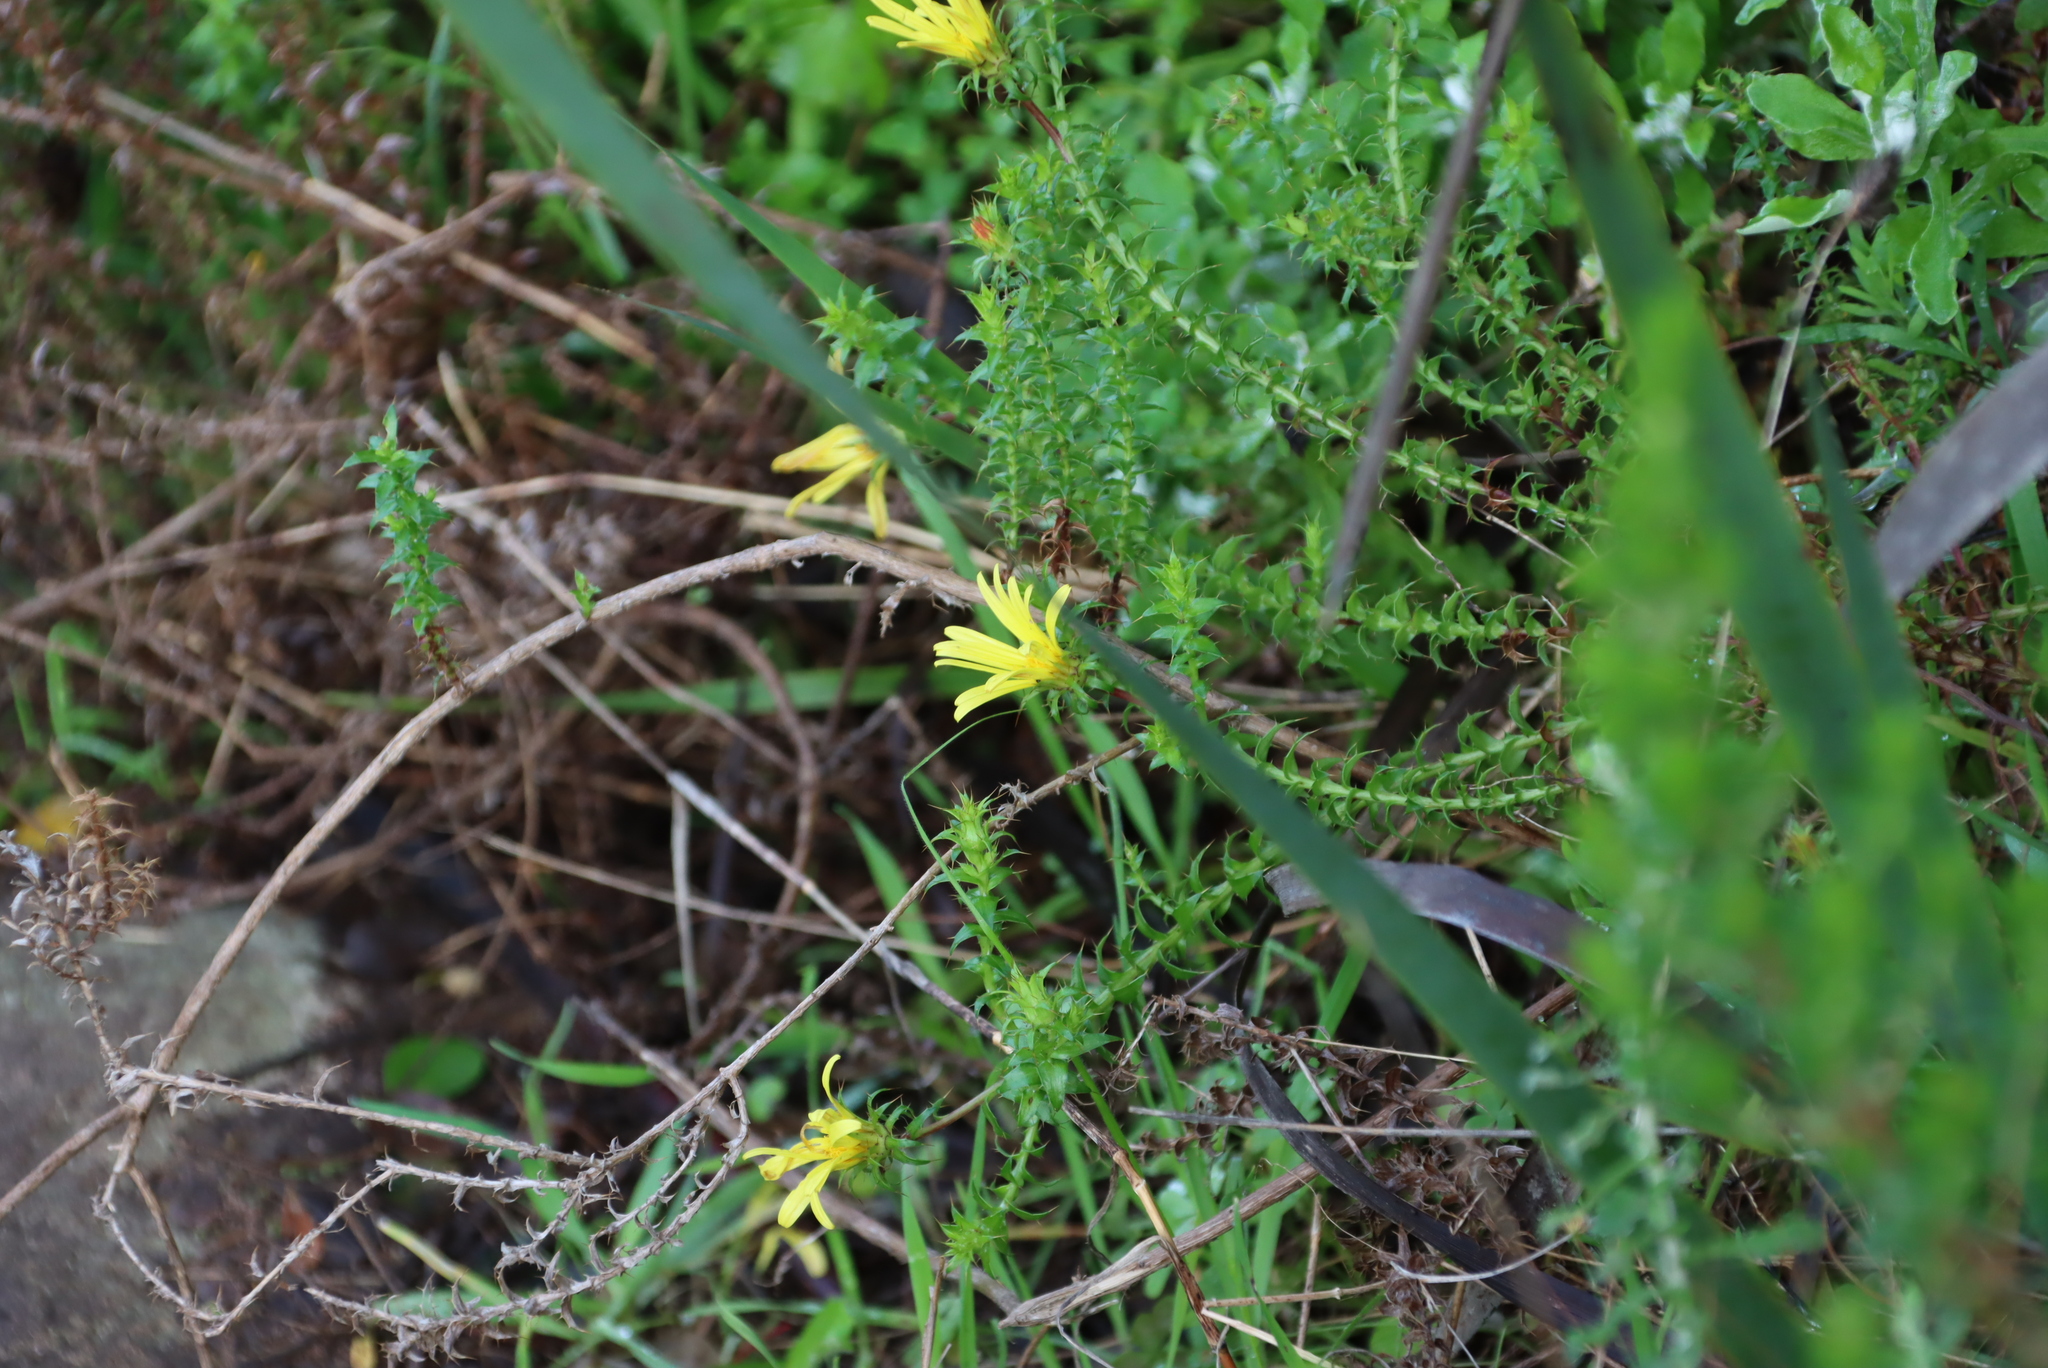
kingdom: Plantae
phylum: Tracheophyta
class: Magnoliopsida
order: Asterales
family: Asteraceae
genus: Cullumia
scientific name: Cullumia setosa
